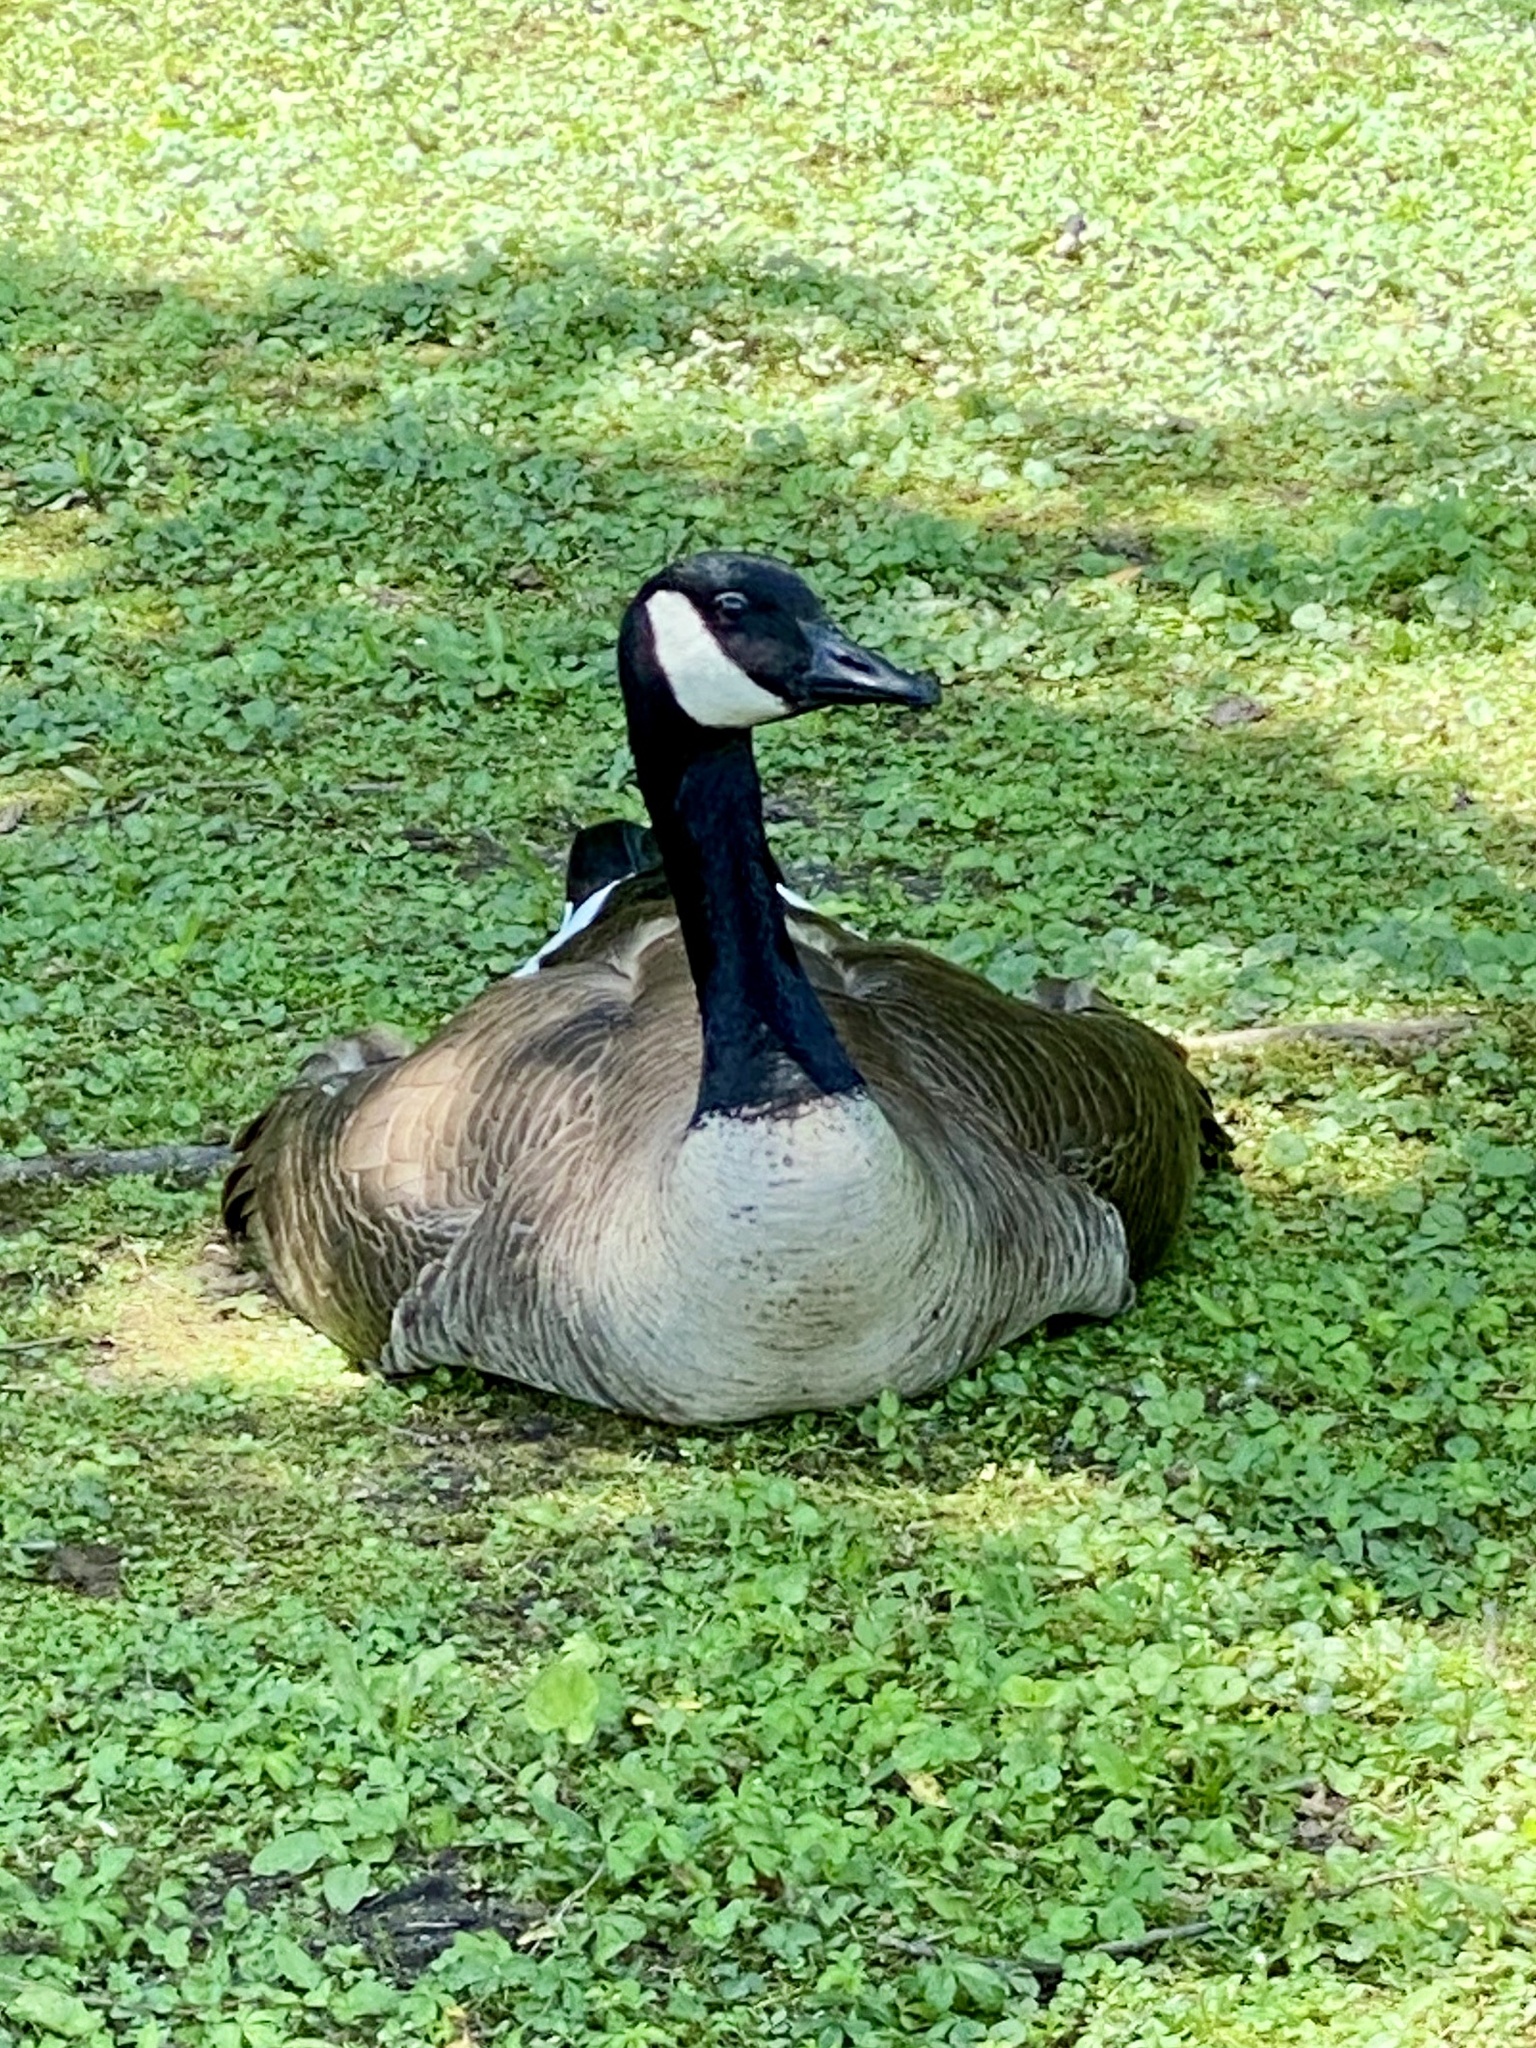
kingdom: Animalia
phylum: Chordata
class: Aves
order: Anseriformes
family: Anatidae
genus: Branta
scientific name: Branta canadensis
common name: Canada goose
